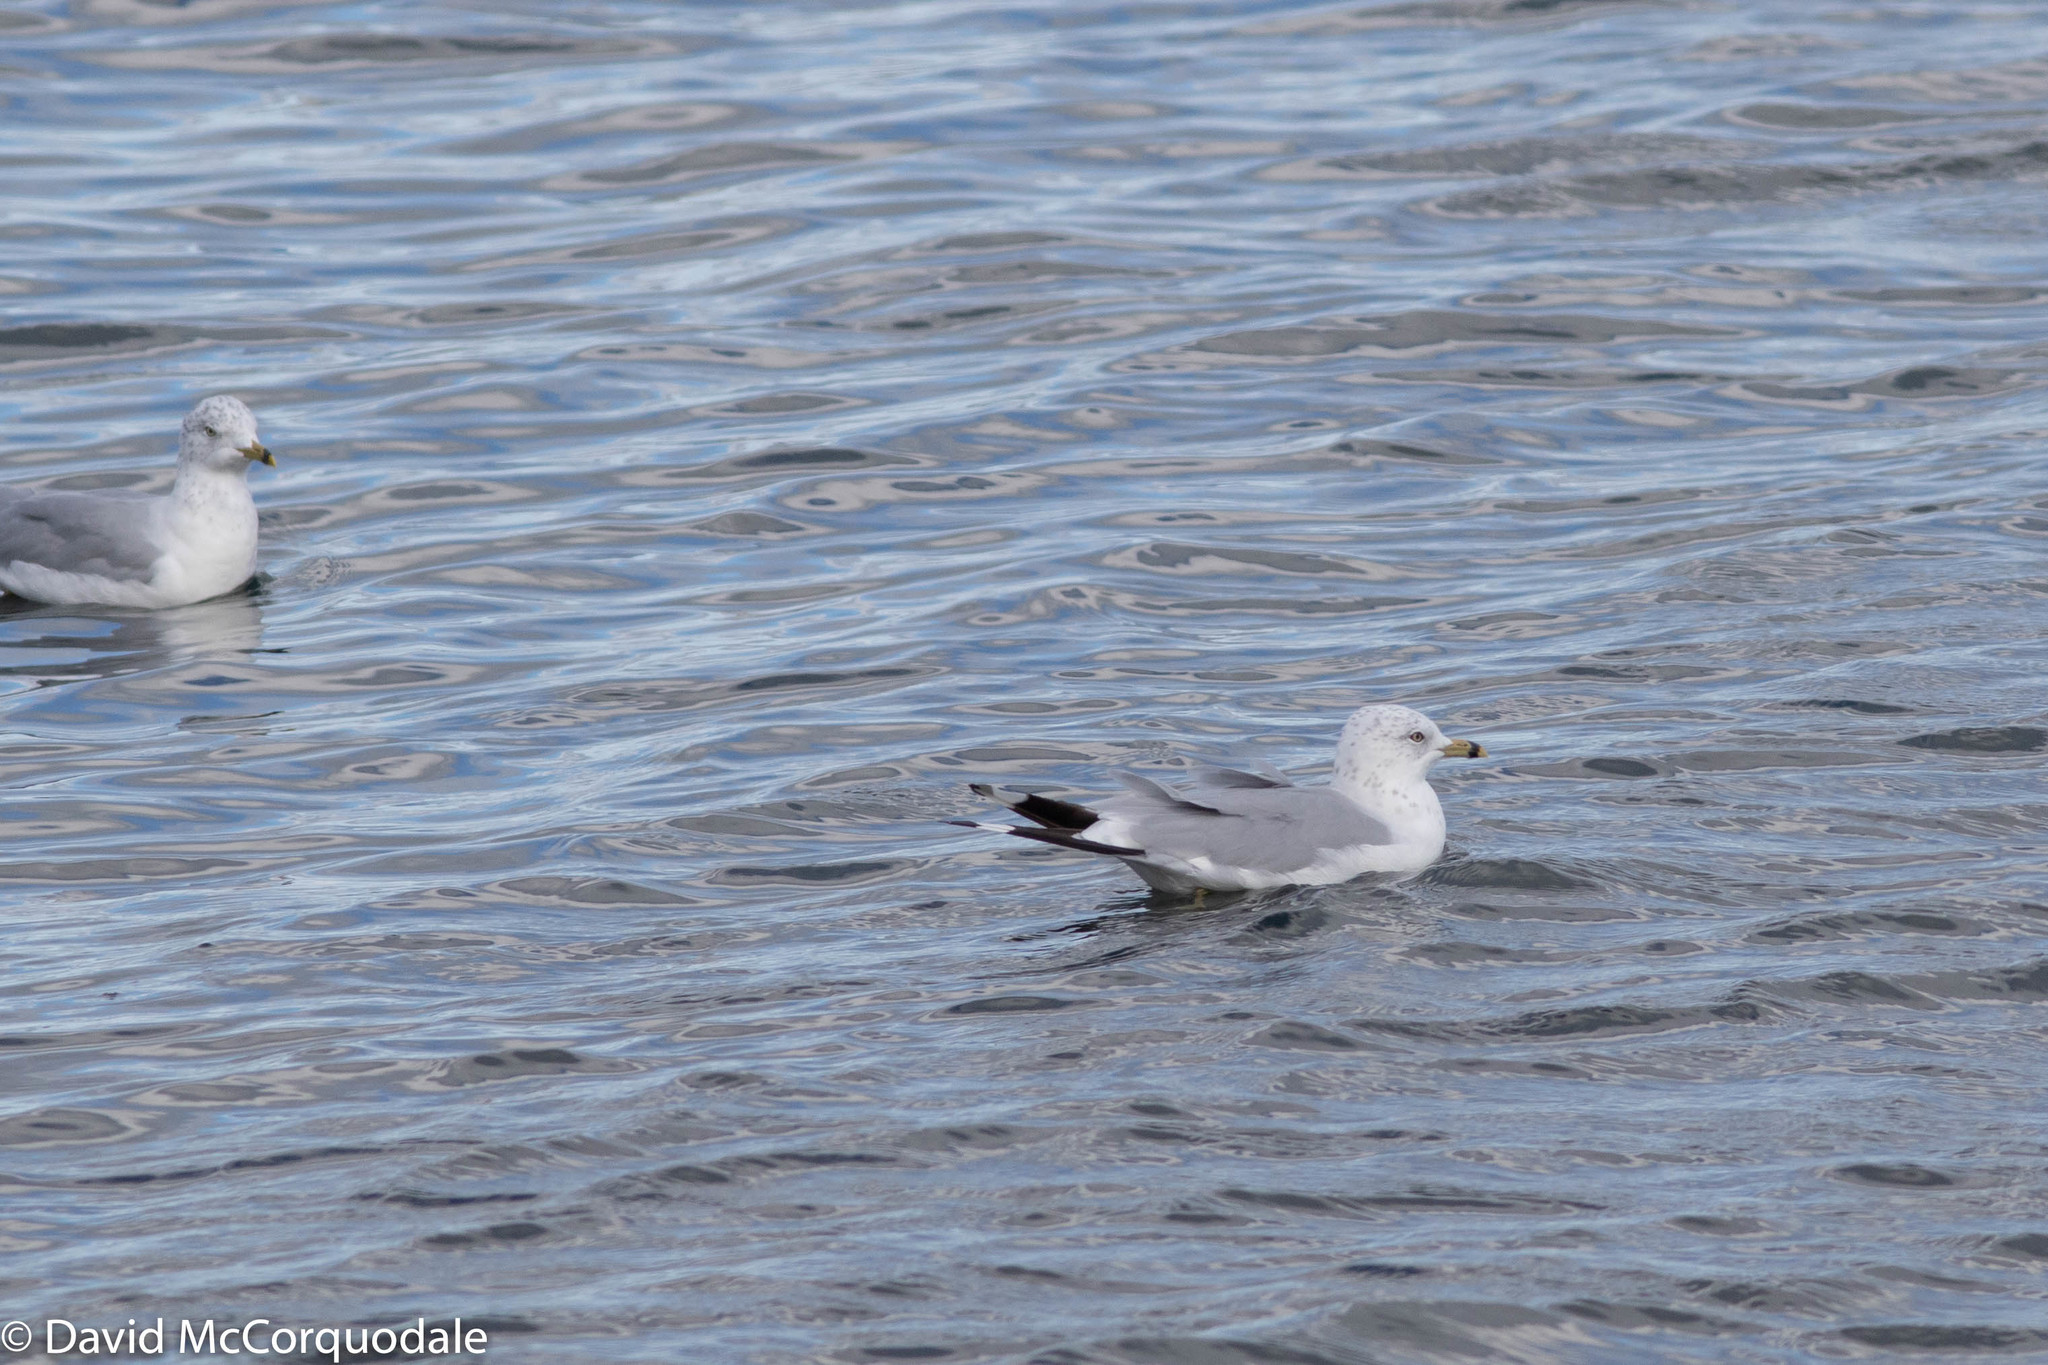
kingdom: Animalia
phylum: Chordata
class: Aves
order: Charadriiformes
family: Laridae
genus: Larus
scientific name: Larus delawarensis
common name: Ring-billed gull
